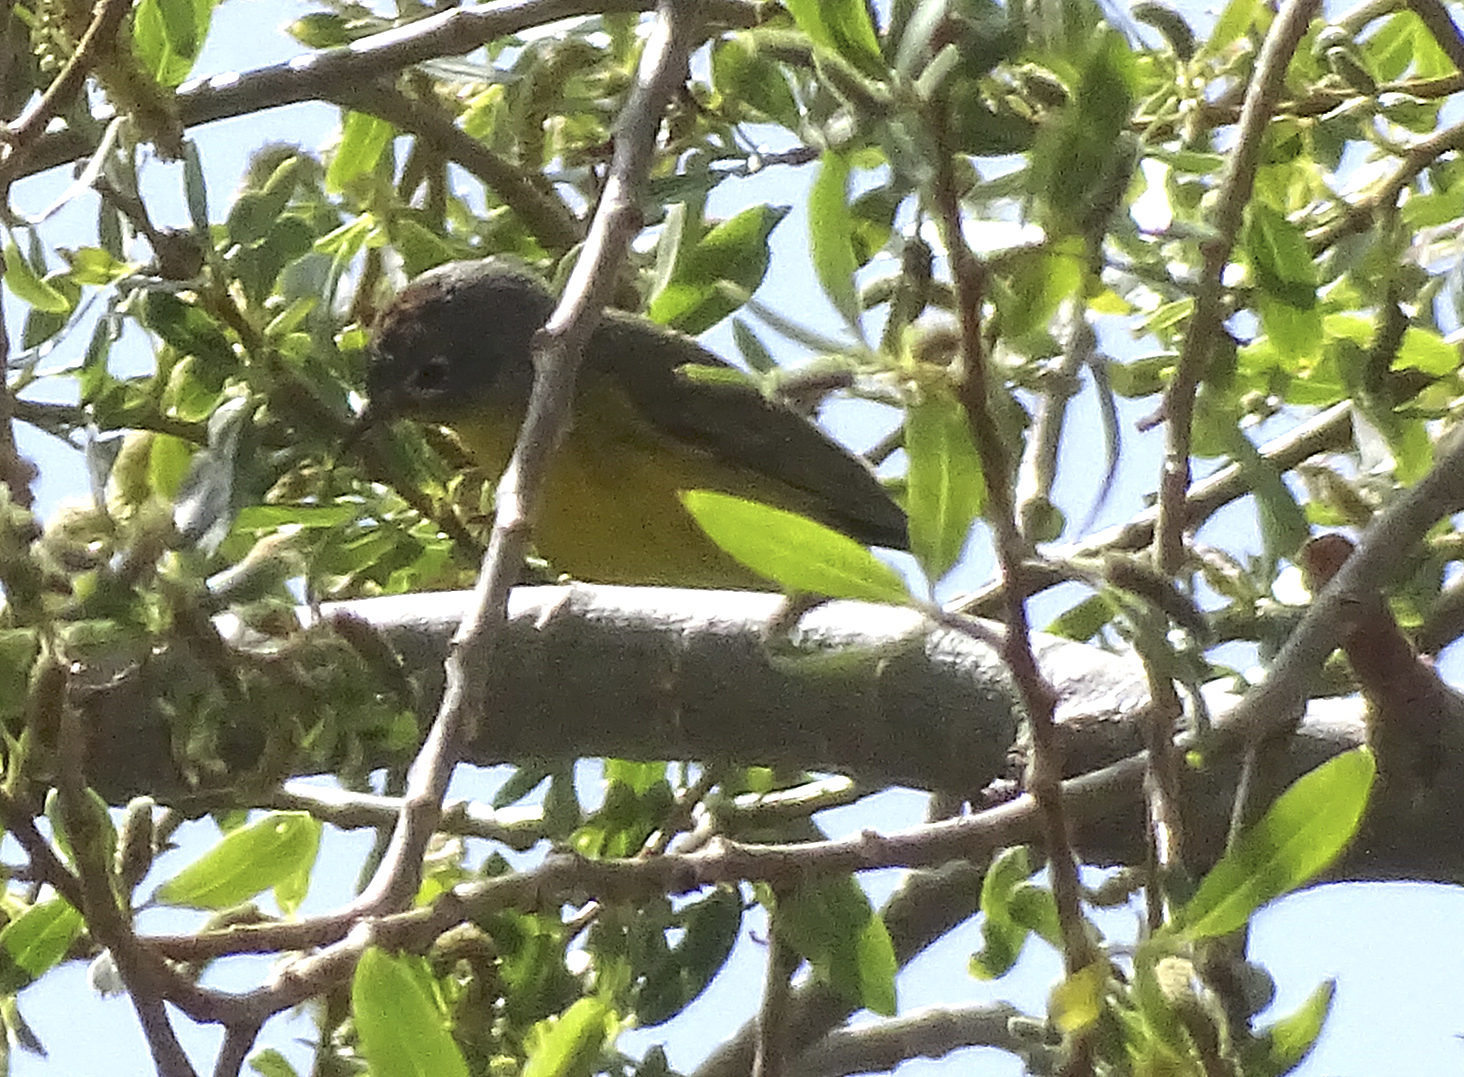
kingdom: Animalia
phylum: Chordata
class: Aves
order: Passeriformes
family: Parulidae
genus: Leiothlypis
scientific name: Leiothlypis ruficapilla
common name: Nashville warbler
